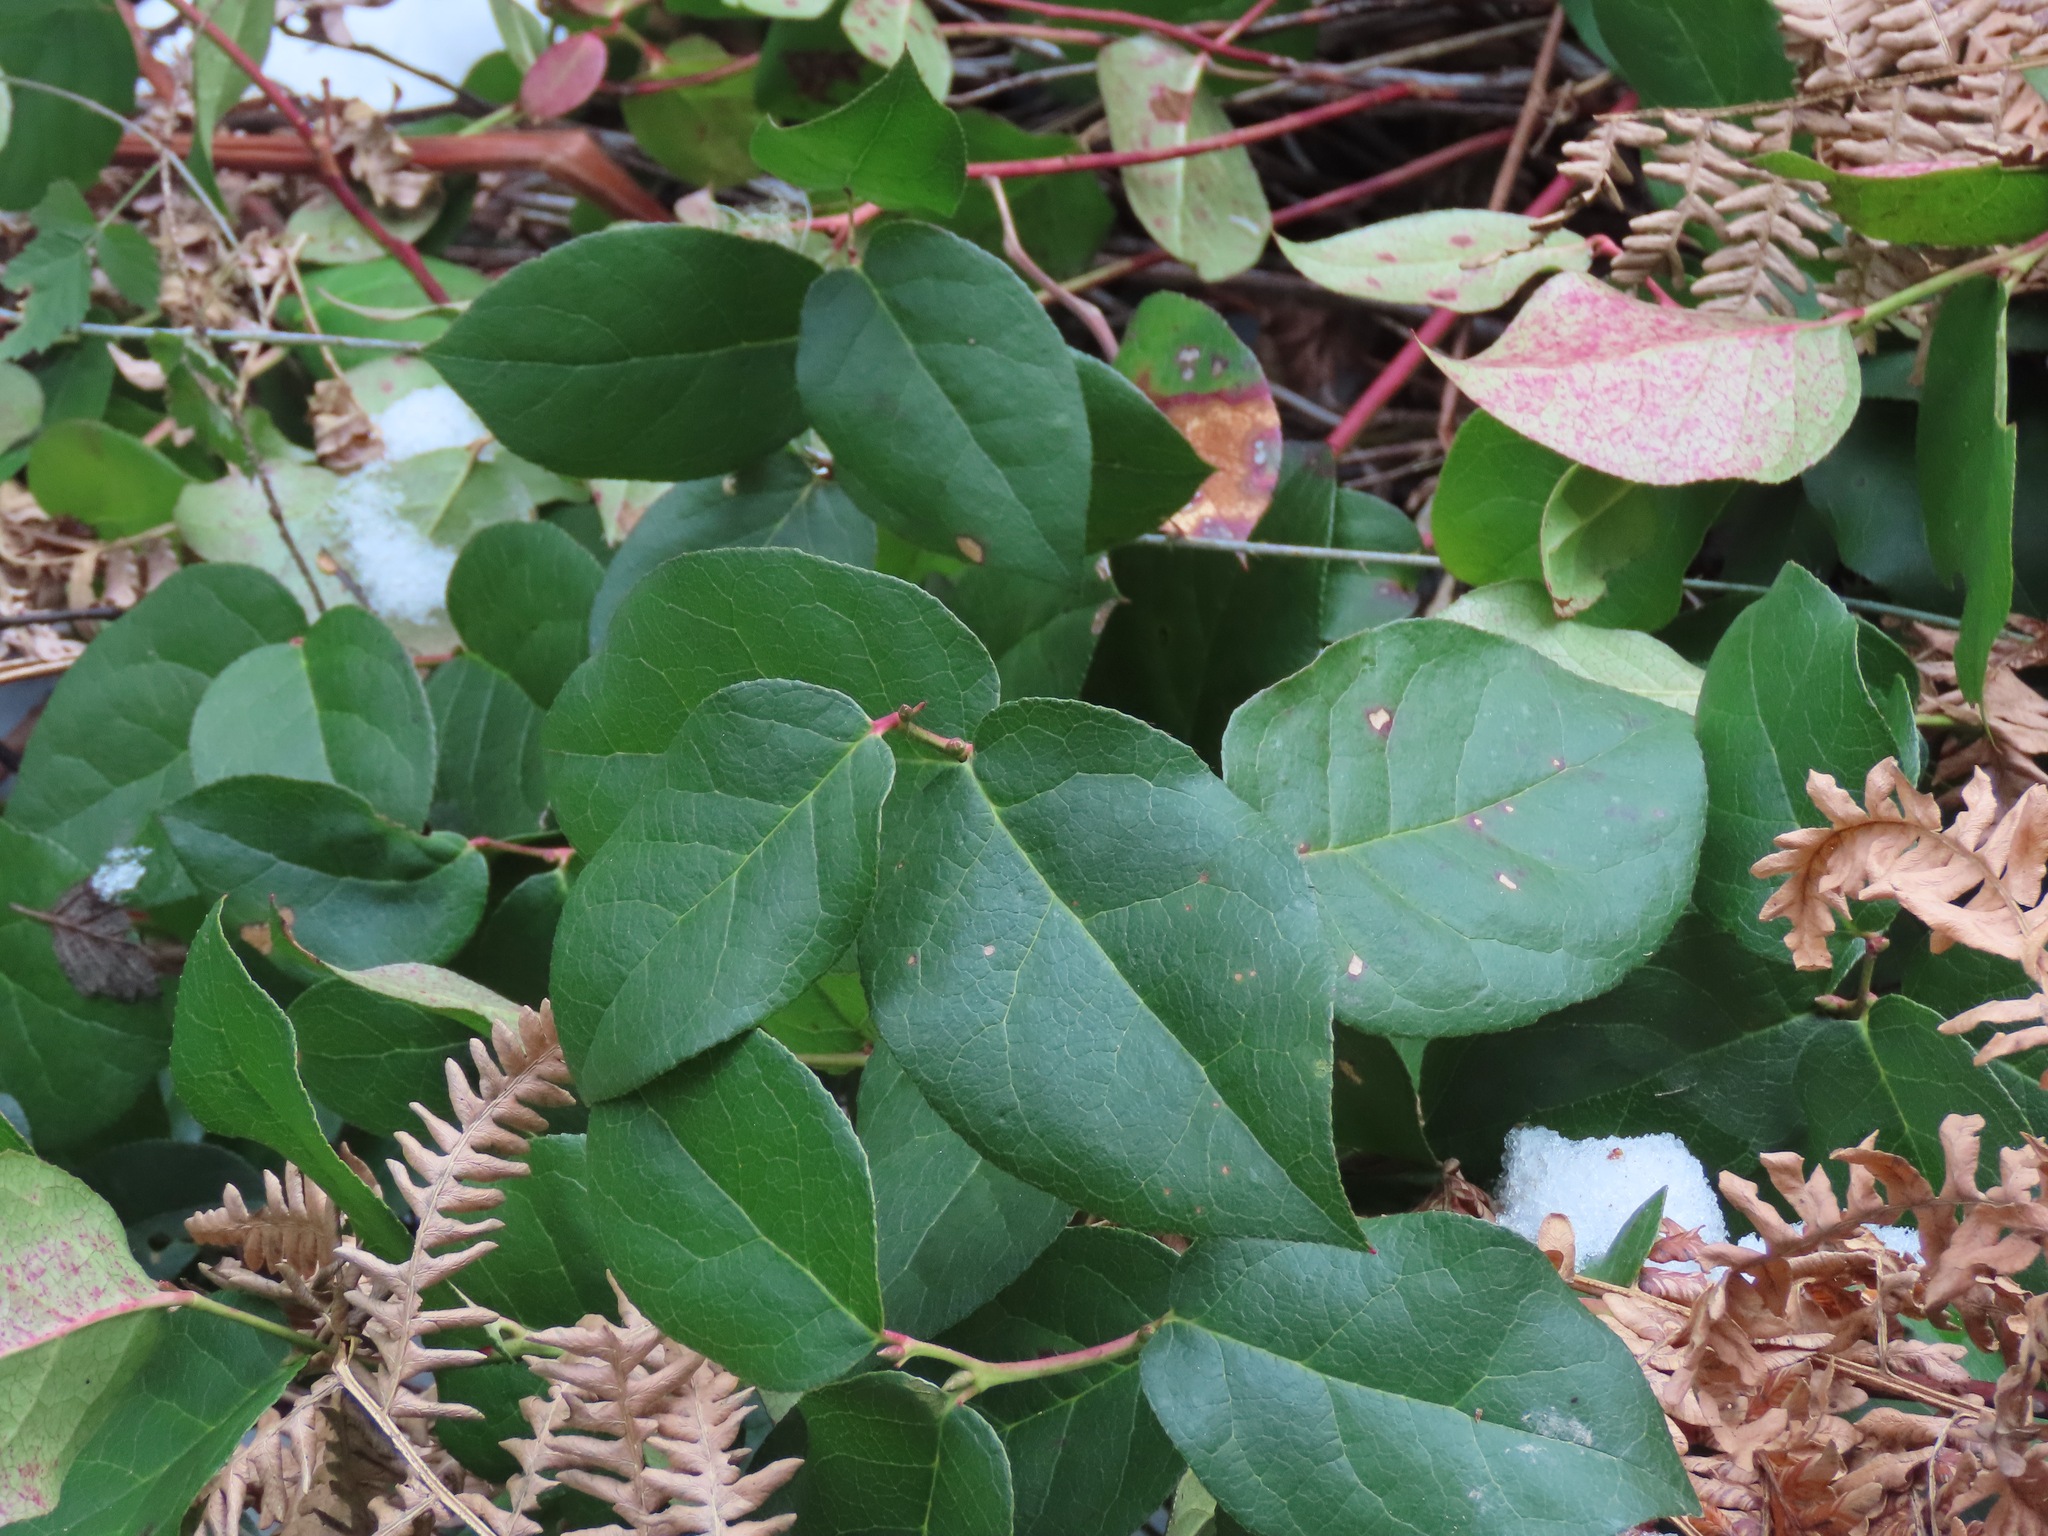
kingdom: Plantae
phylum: Tracheophyta
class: Magnoliopsida
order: Ericales
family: Ericaceae
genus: Gaultheria
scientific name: Gaultheria shallon
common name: Shallon
